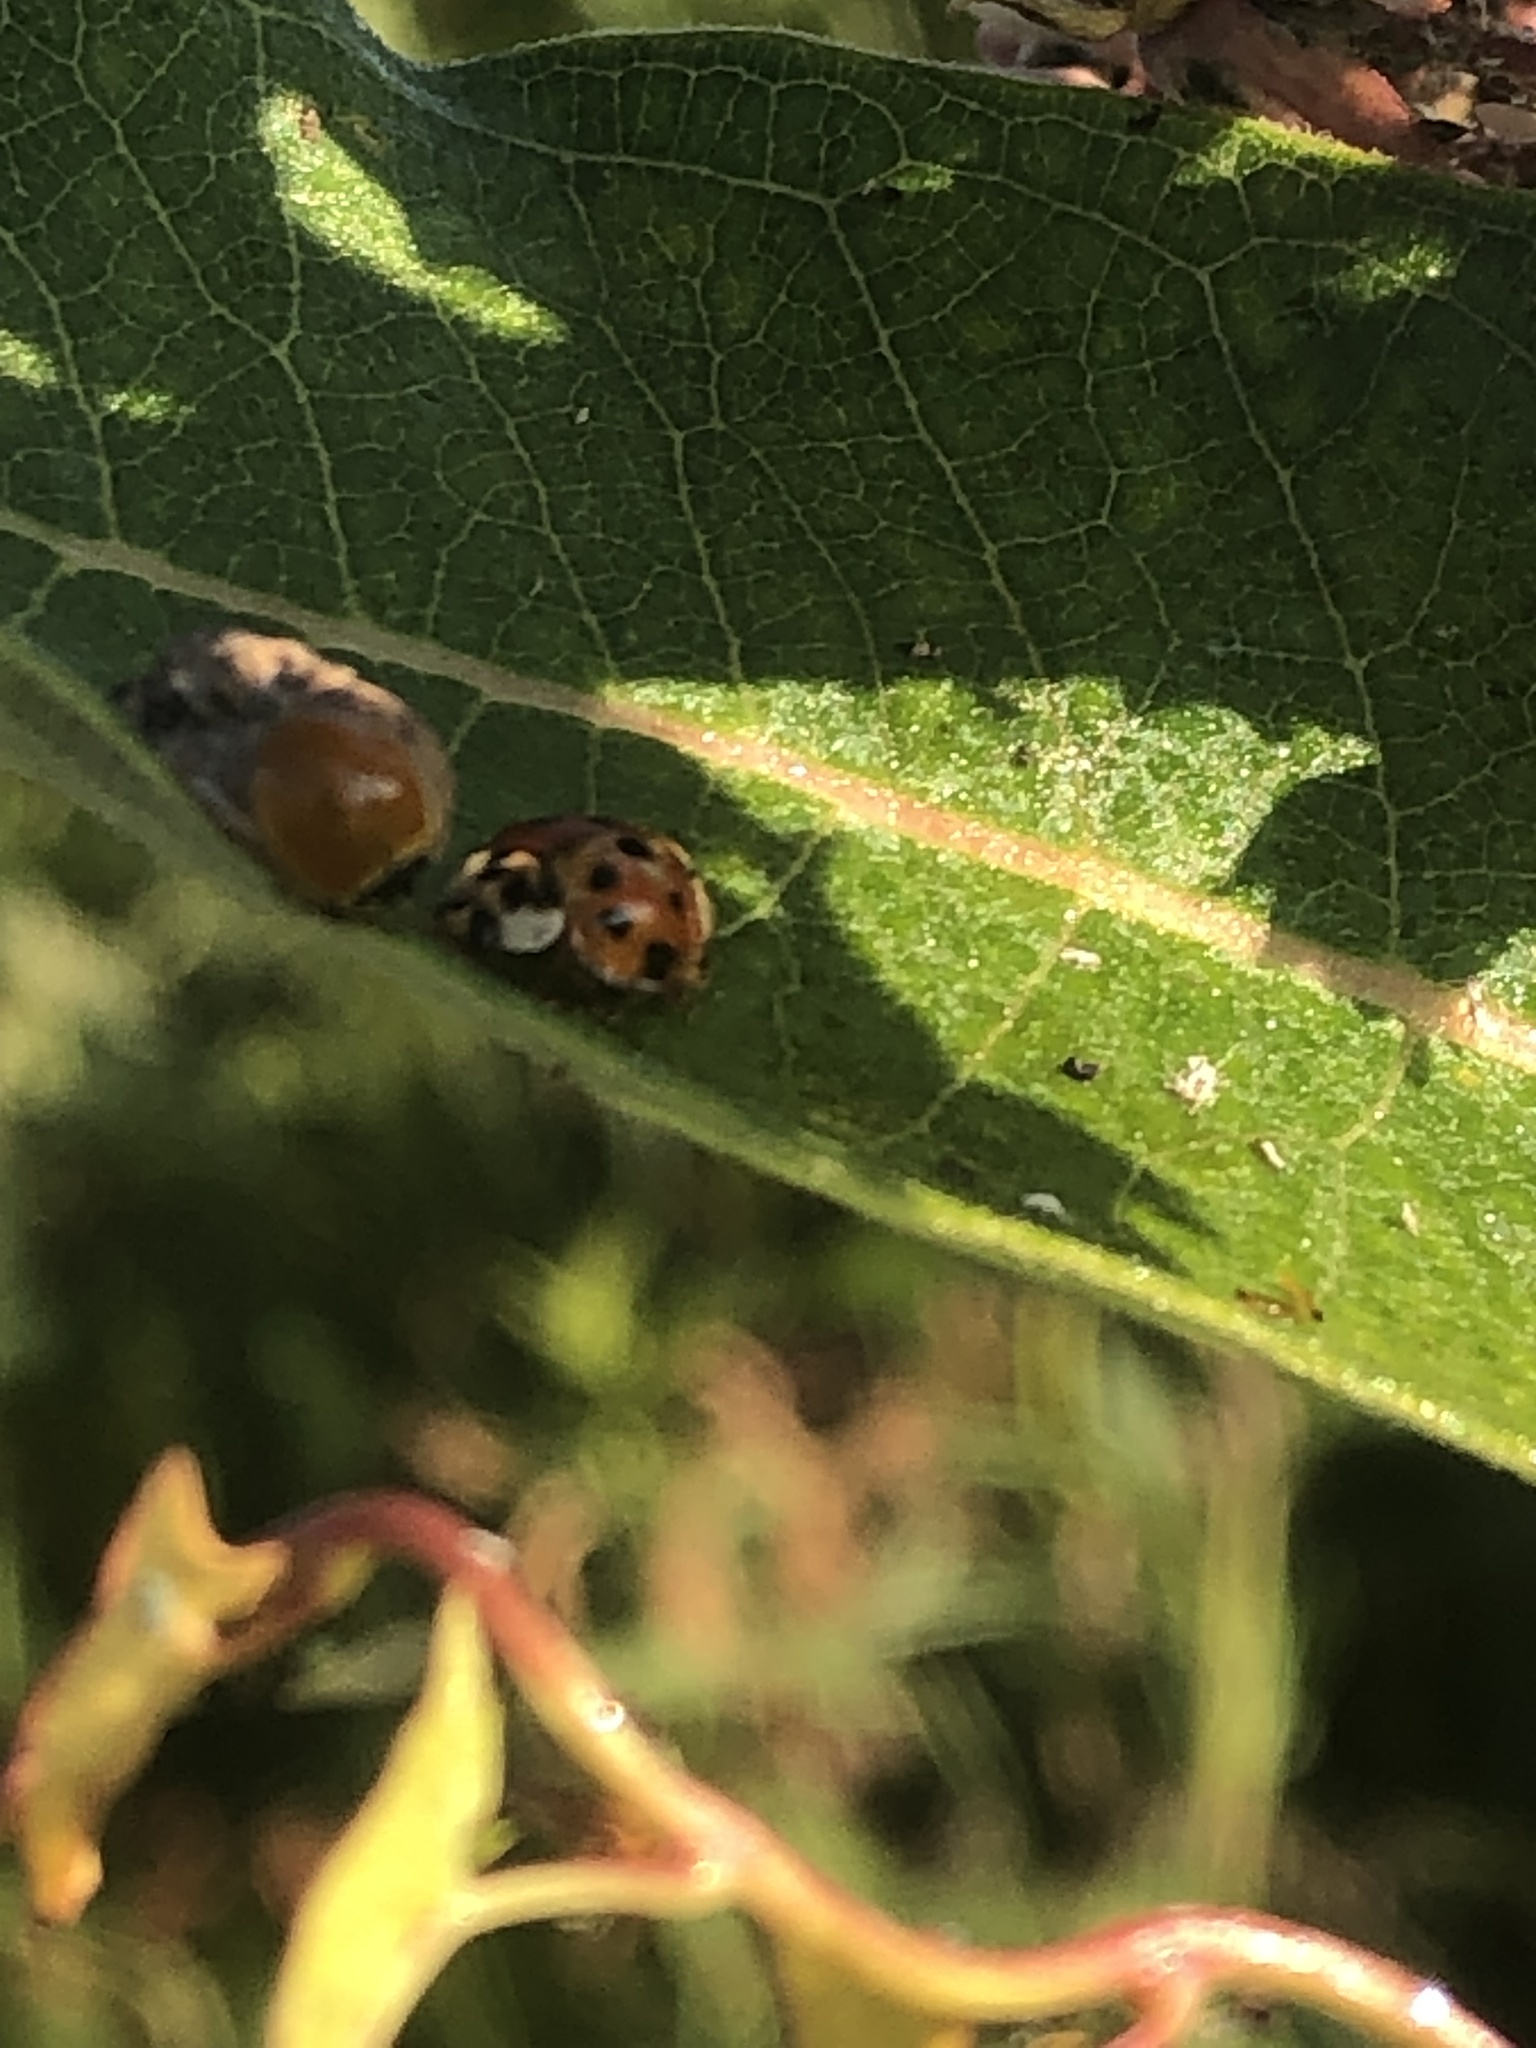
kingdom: Animalia
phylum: Arthropoda
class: Insecta
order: Coleoptera
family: Coccinellidae
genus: Cycloneda
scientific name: Cycloneda munda
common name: Polished lady beetle
